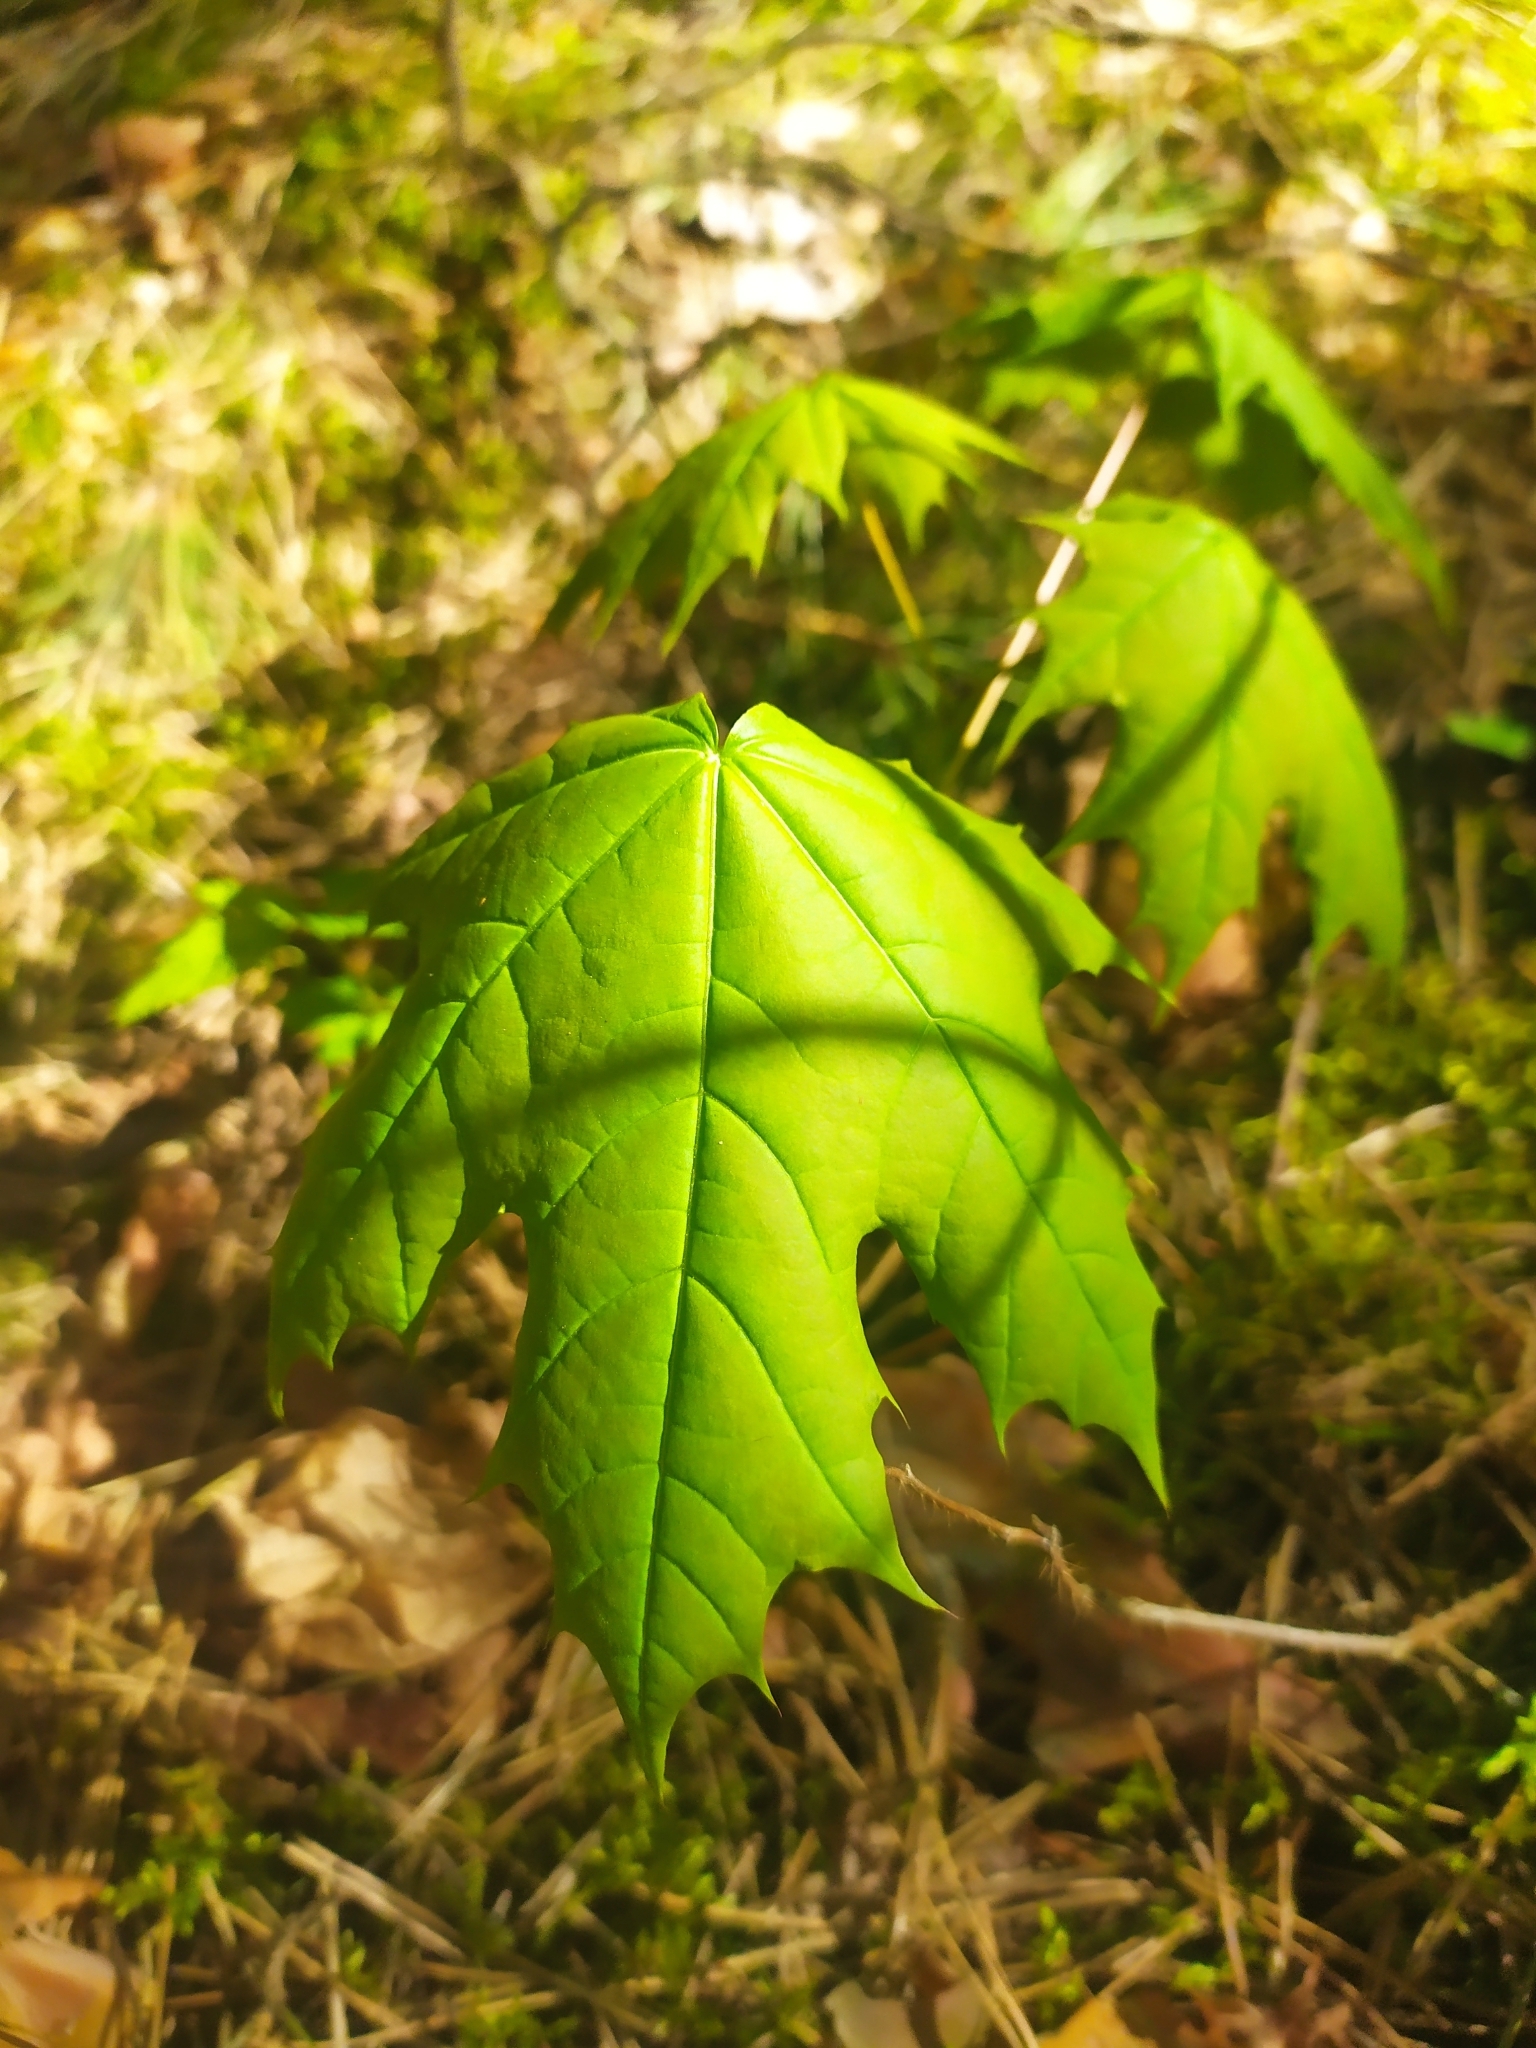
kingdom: Plantae
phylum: Tracheophyta
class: Magnoliopsida
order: Sapindales
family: Sapindaceae
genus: Acer
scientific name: Acer platanoides
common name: Norway maple
